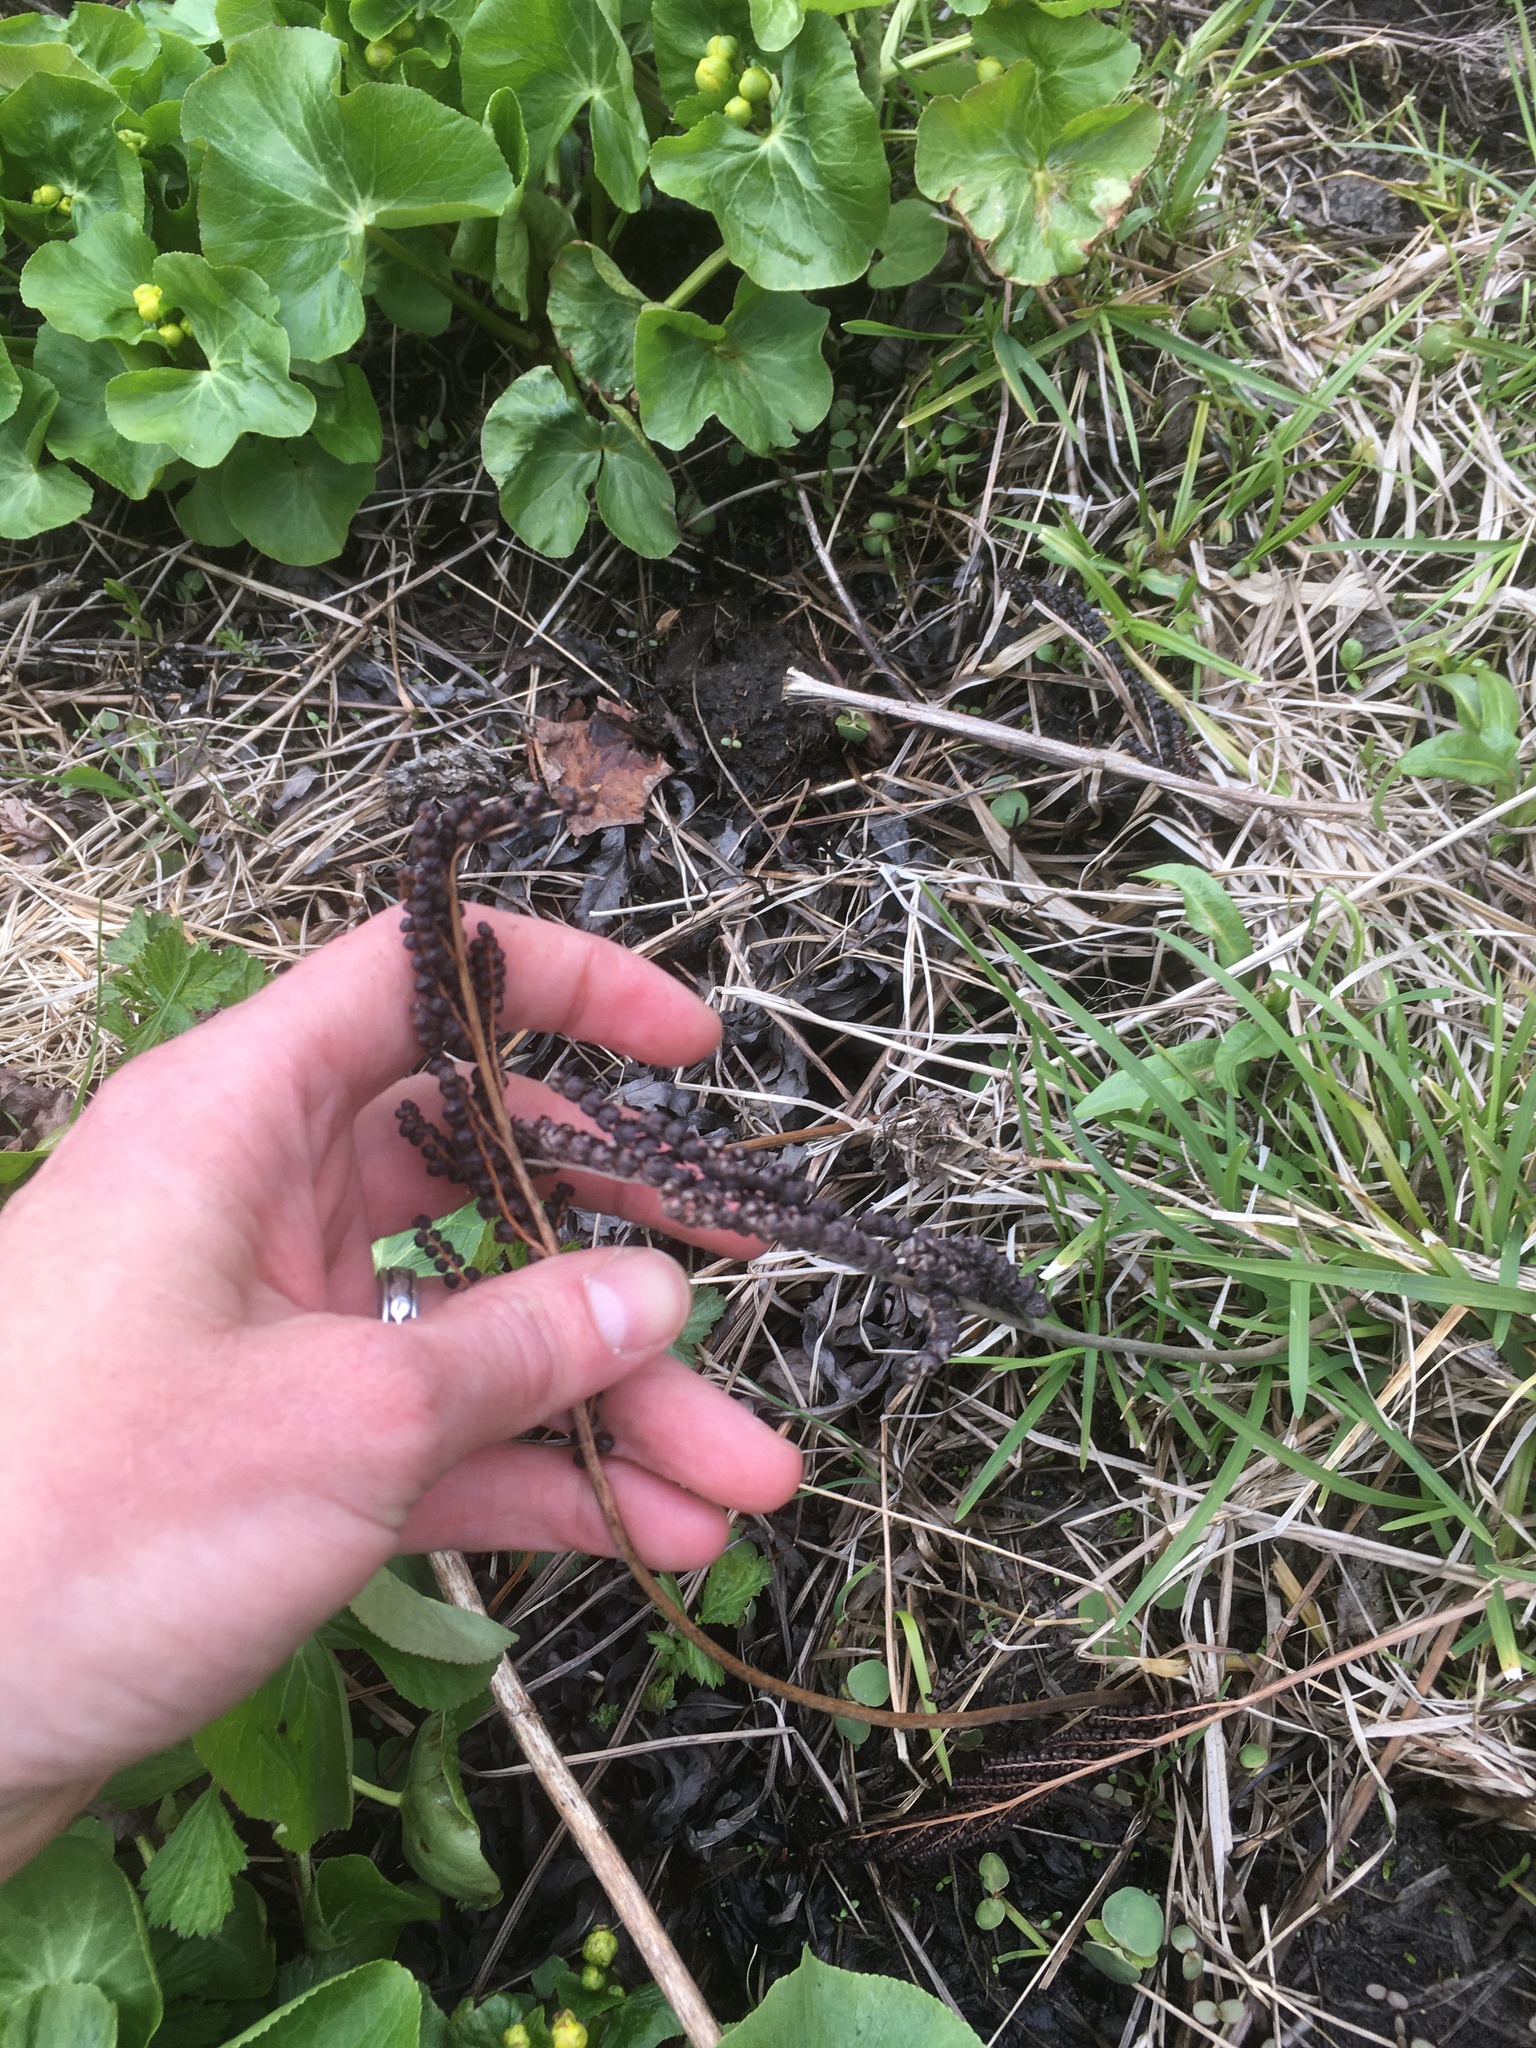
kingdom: Plantae
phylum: Tracheophyta
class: Polypodiopsida
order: Polypodiales
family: Onocleaceae
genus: Onoclea
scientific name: Onoclea sensibilis
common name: Sensitive fern
